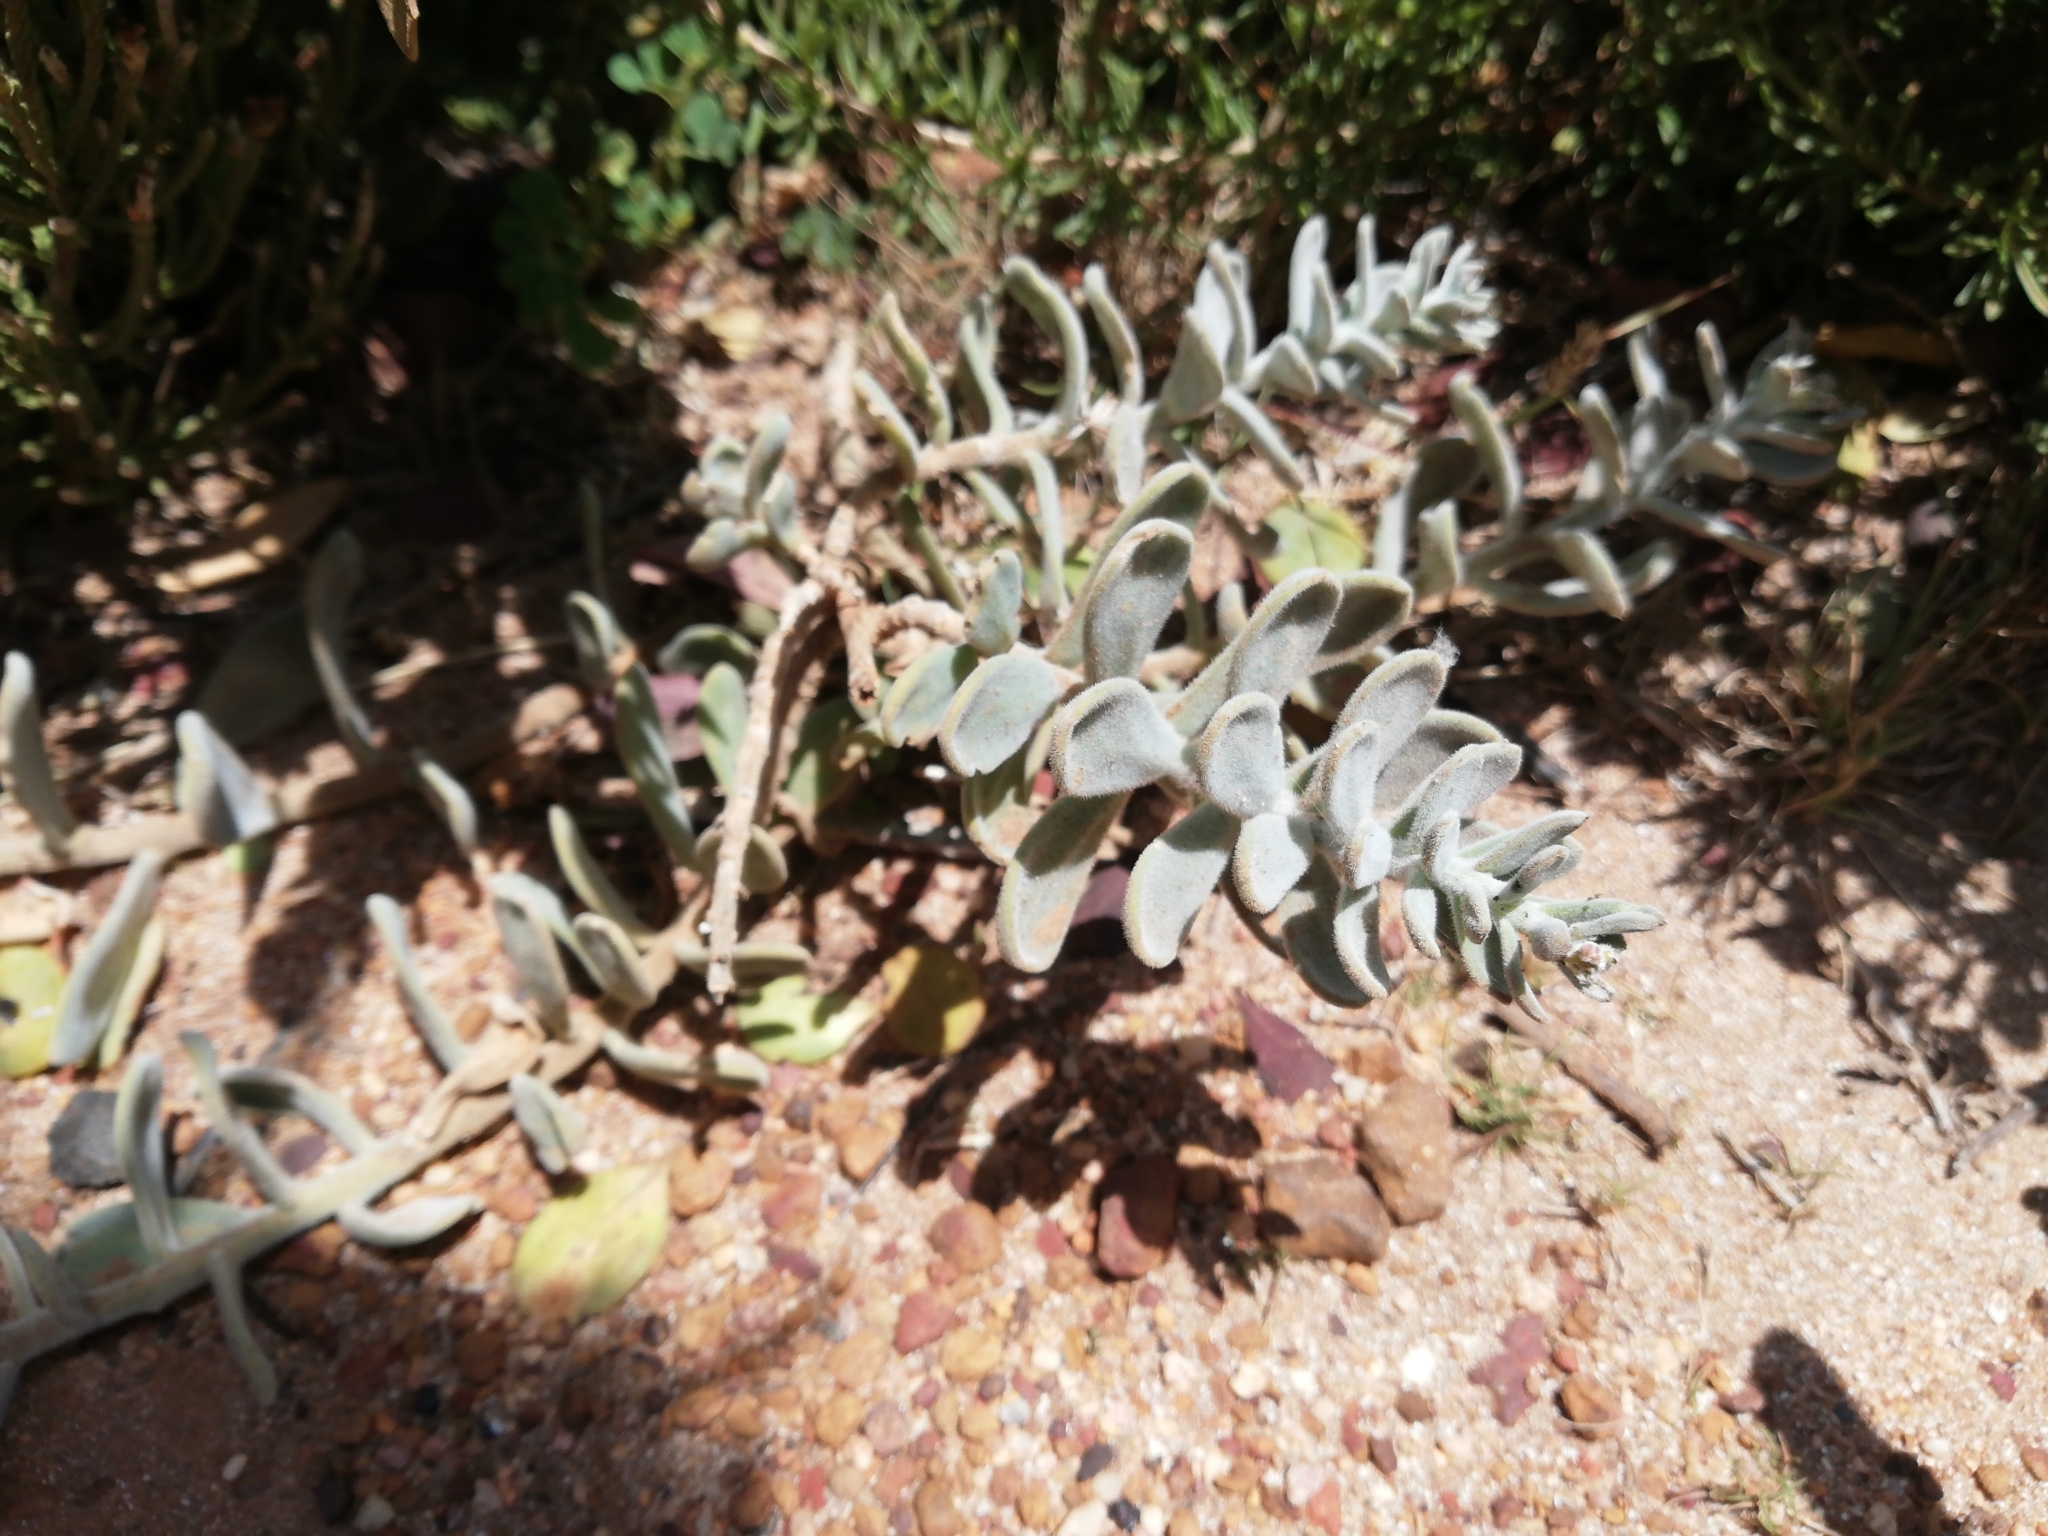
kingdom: Plantae
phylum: Tracheophyta
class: Magnoliopsida
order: Brassicales
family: Brassicaceae
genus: Heliophila
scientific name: Heliophila cinerea
